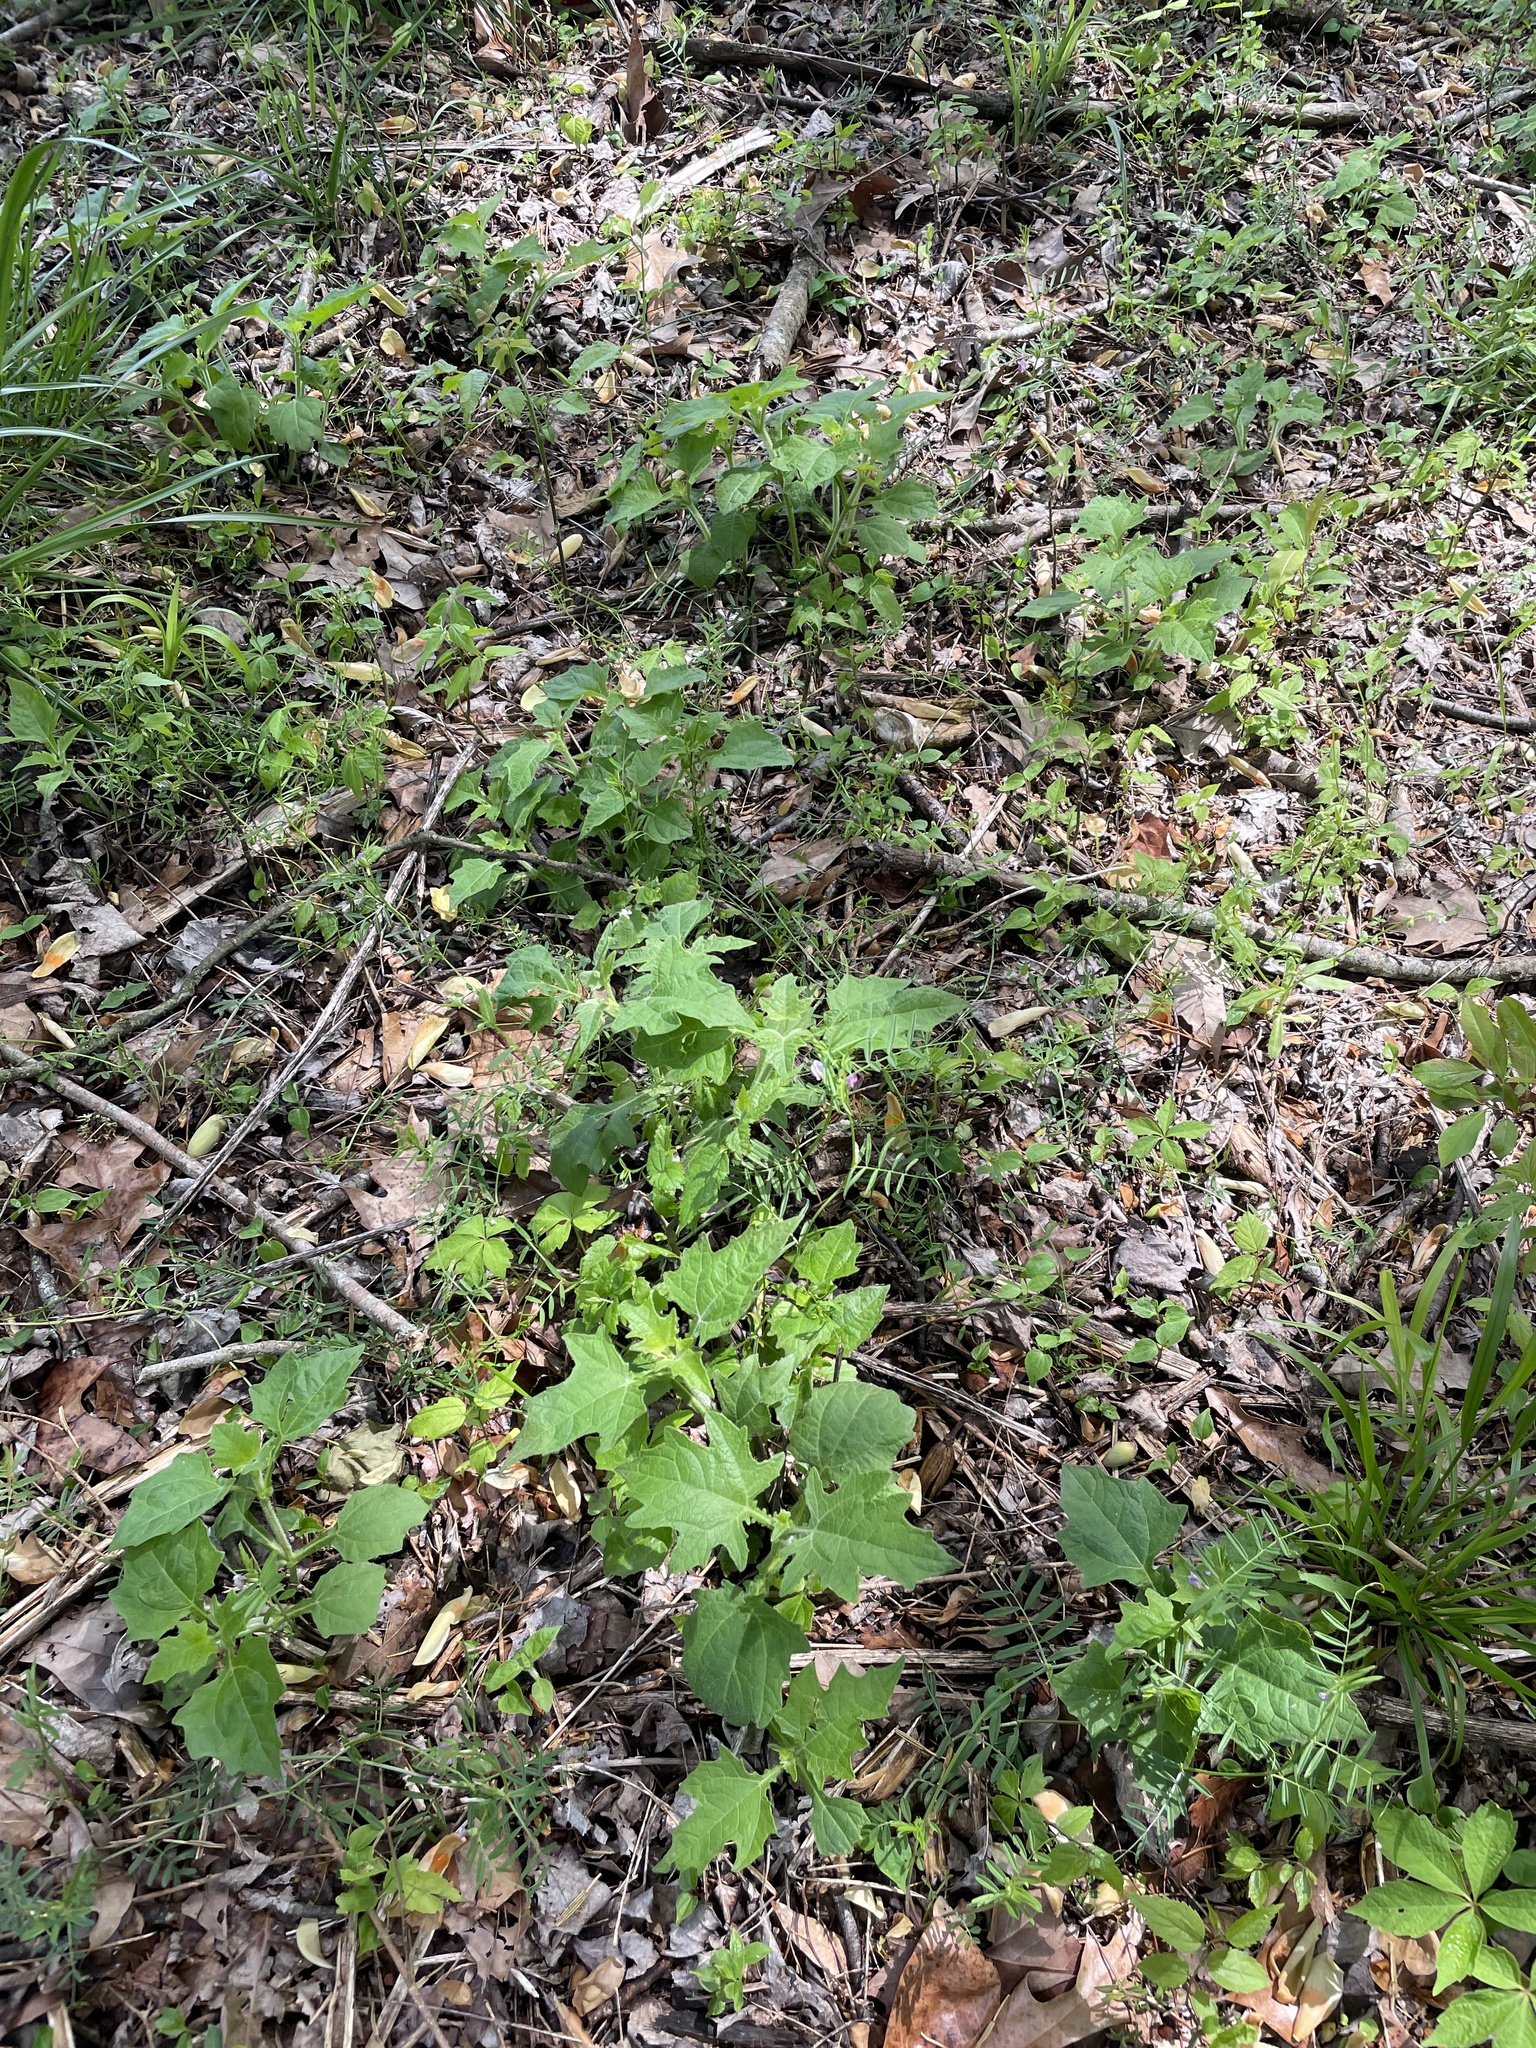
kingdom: Plantae
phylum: Tracheophyta
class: Magnoliopsida
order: Asterales
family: Asteraceae
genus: Smallanthus
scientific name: Smallanthus uvedalia
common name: Bear's-foot
